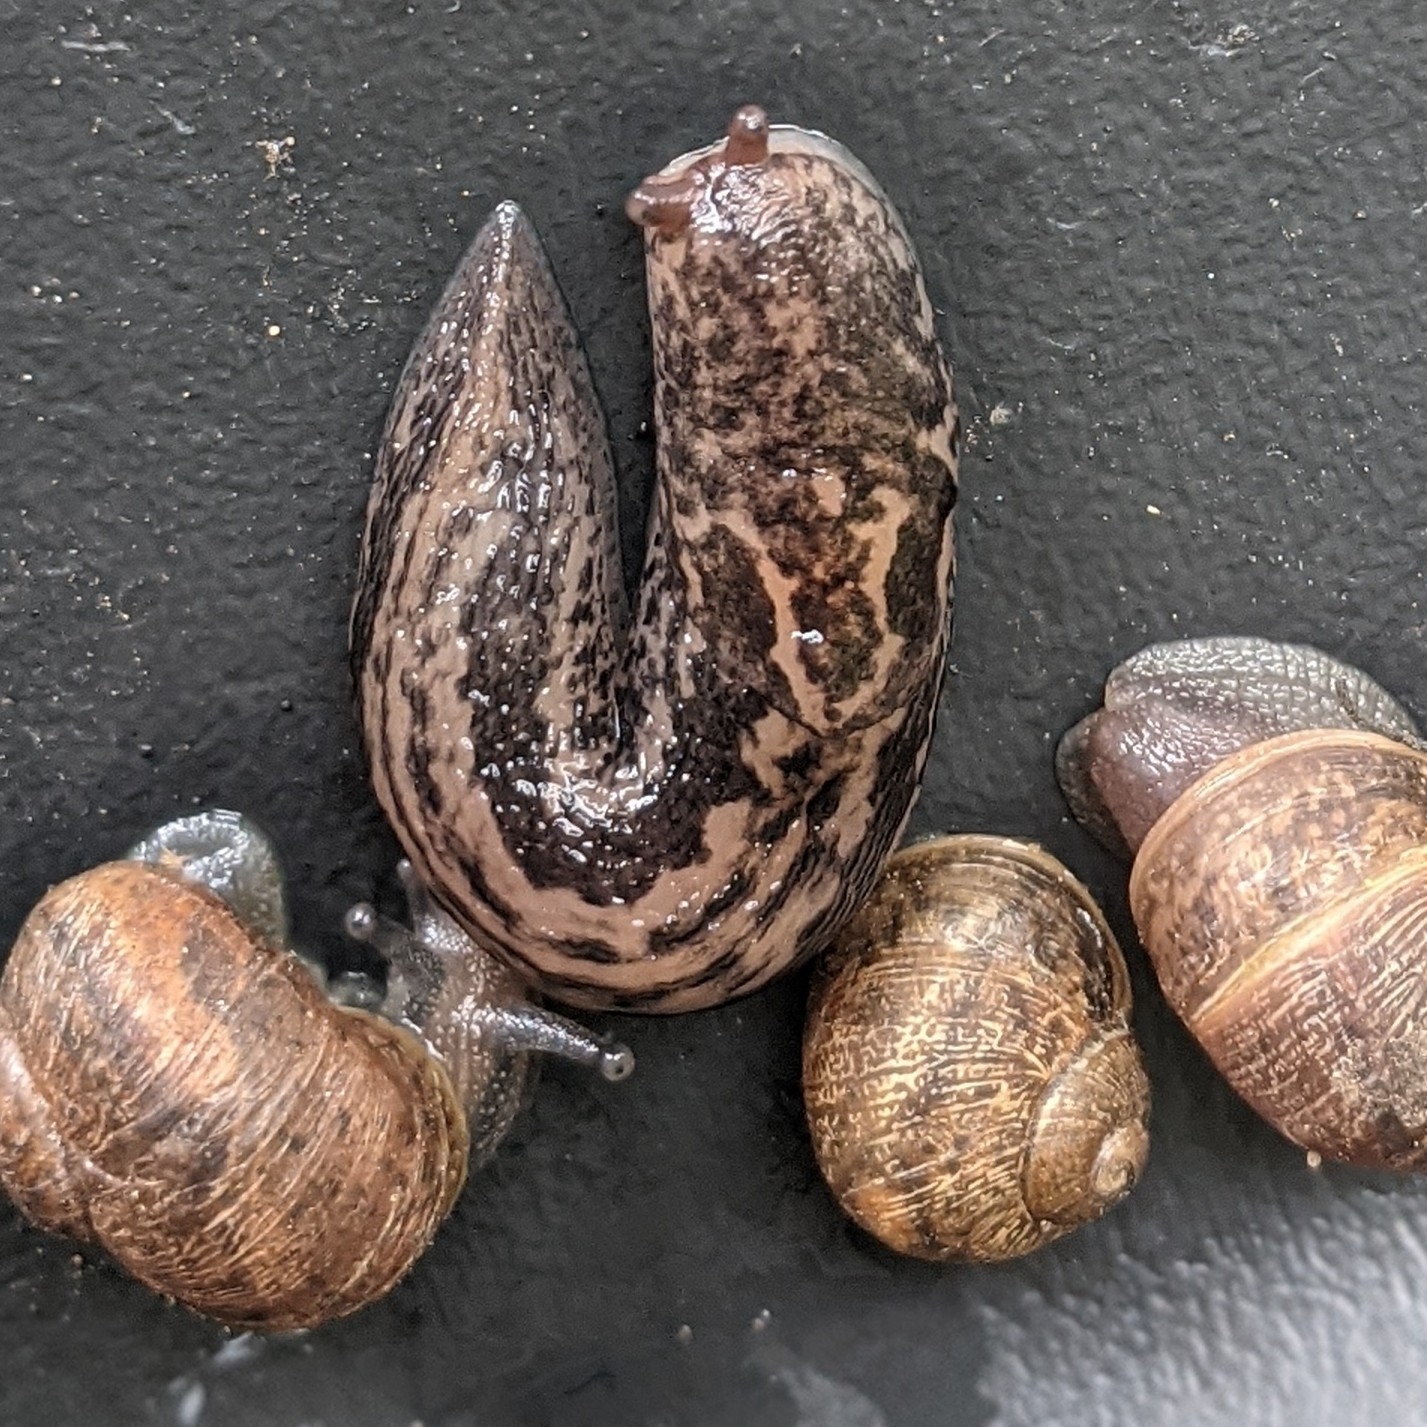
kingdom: Animalia
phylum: Mollusca
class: Gastropoda
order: Stylommatophora
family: Limacidae
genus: Limax
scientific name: Limax maximus
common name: Great grey slug
